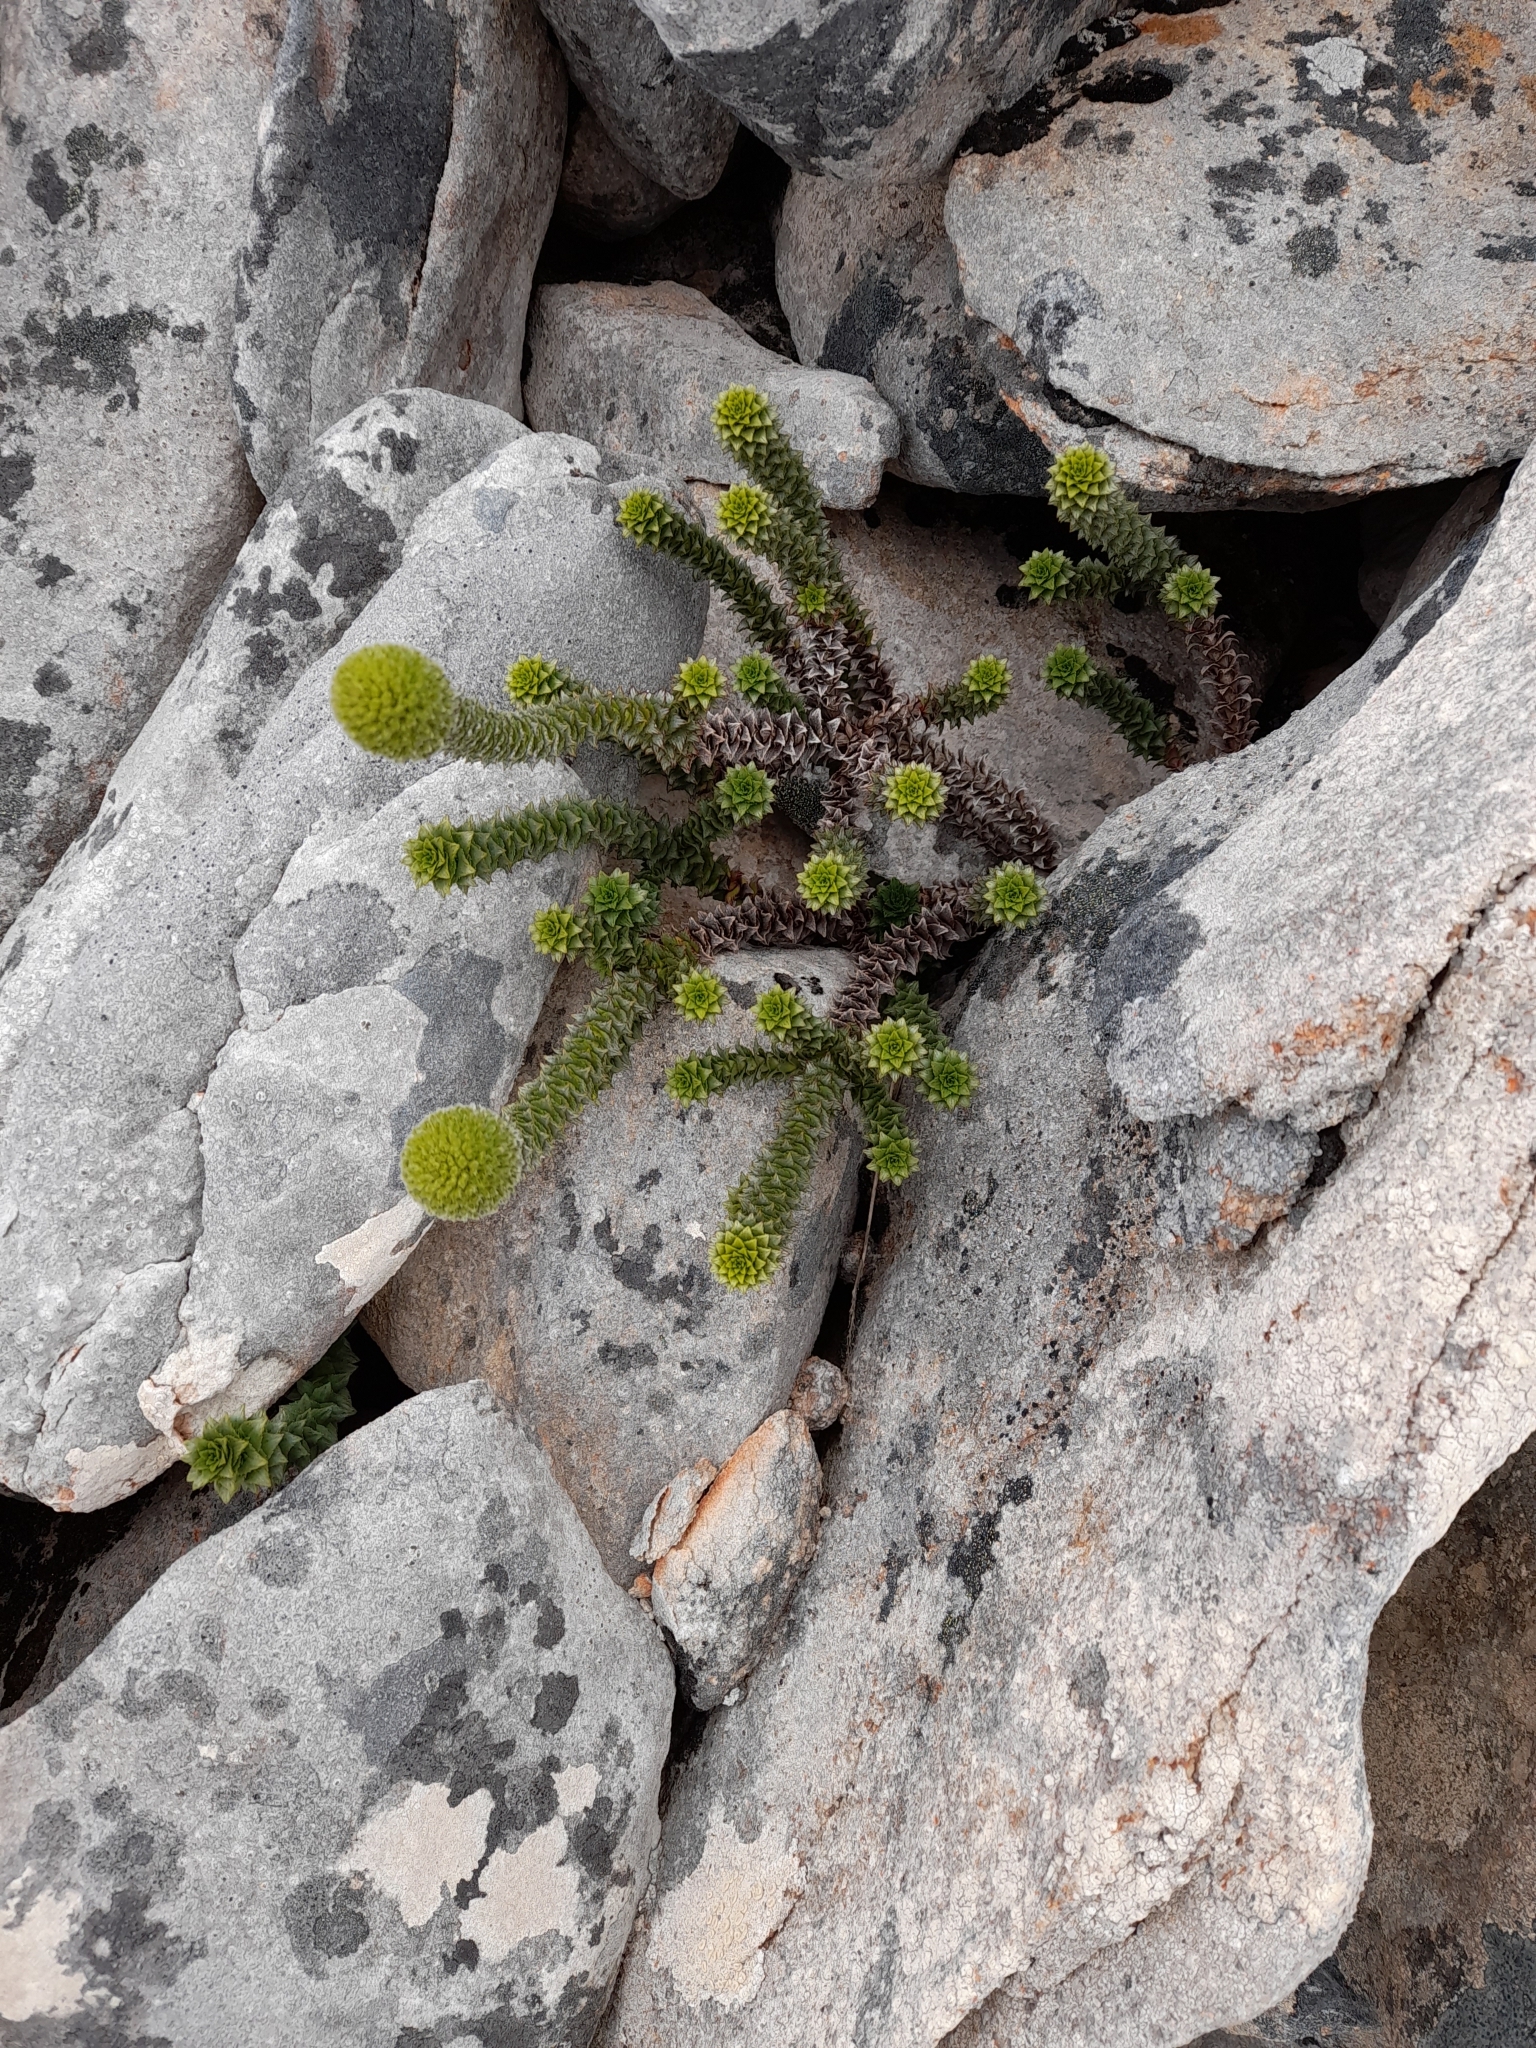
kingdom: Plantae
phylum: Tracheophyta
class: Magnoliopsida
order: Asterales
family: Asteraceae
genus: Nassauvia
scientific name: Nassauvia serpens
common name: Snakeplant
